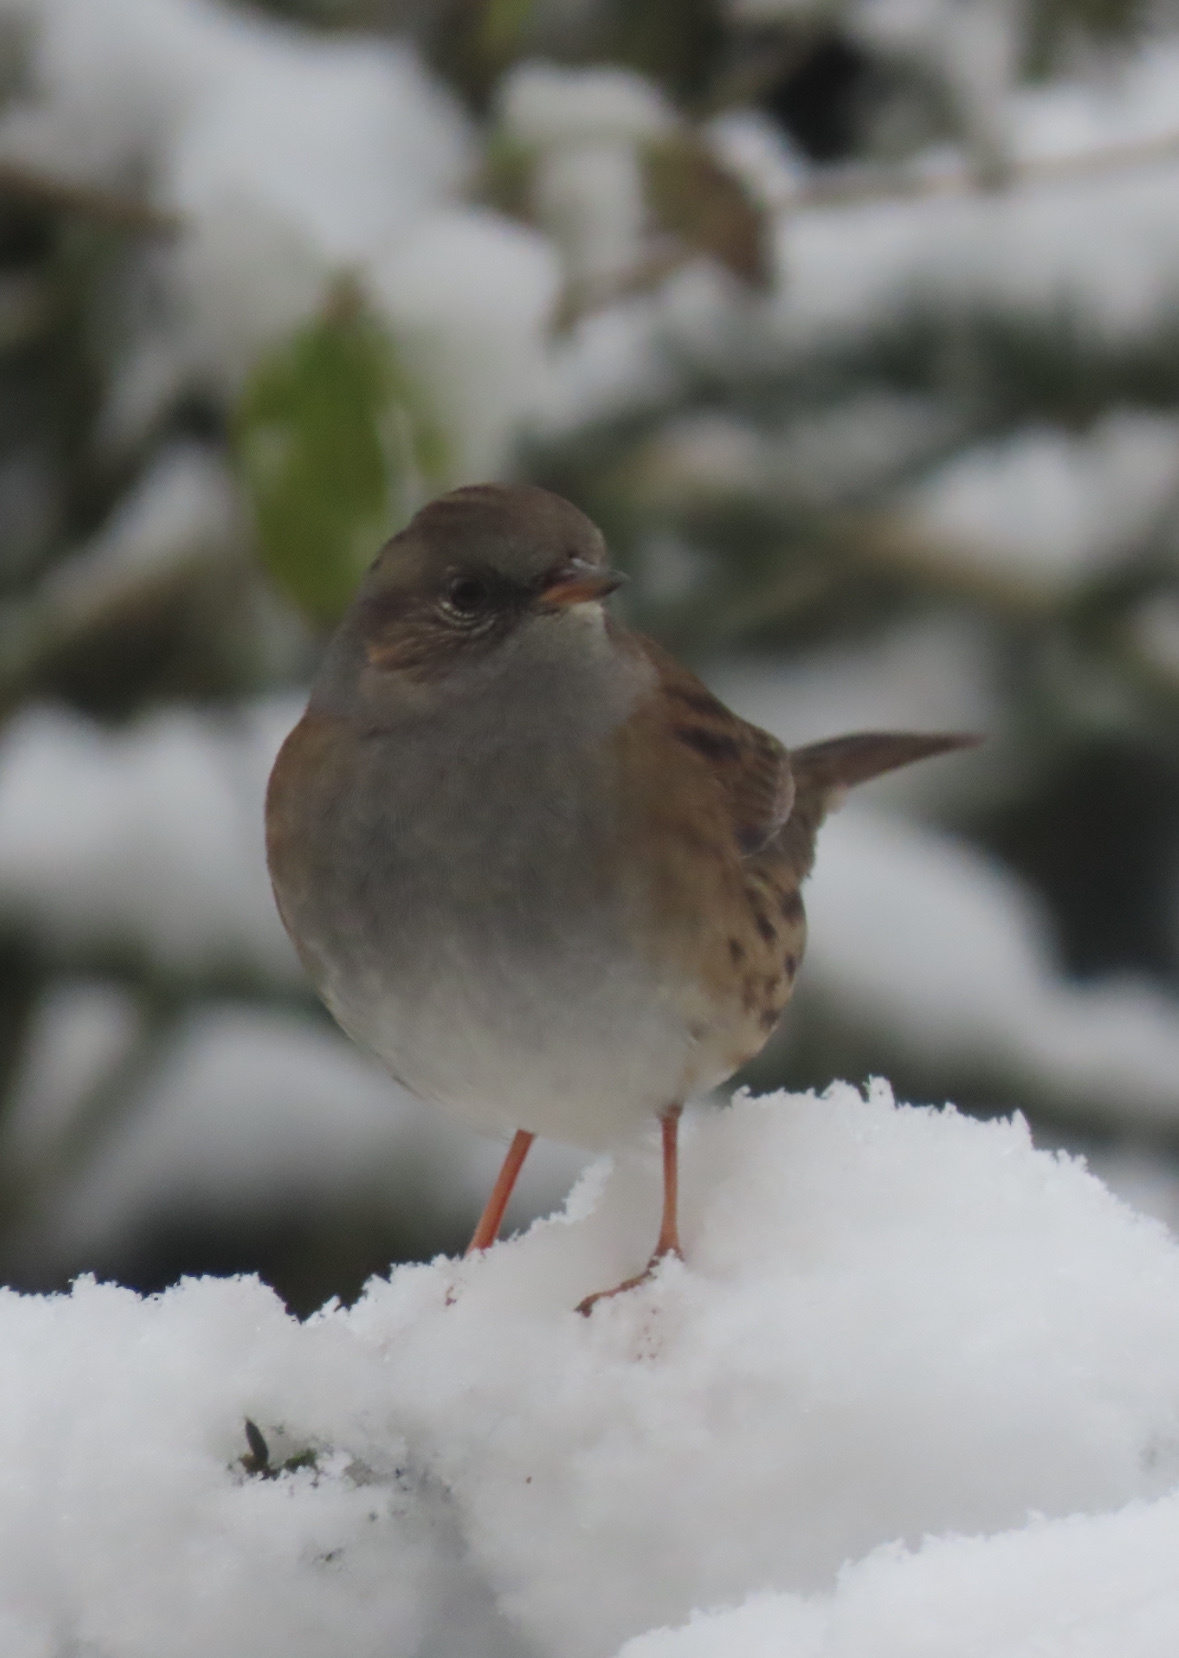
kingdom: Animalia
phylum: Chordata
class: Aves
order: Passeriformes
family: Prunellidae
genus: Prunella
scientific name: Prunella modularis
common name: Dunnock
